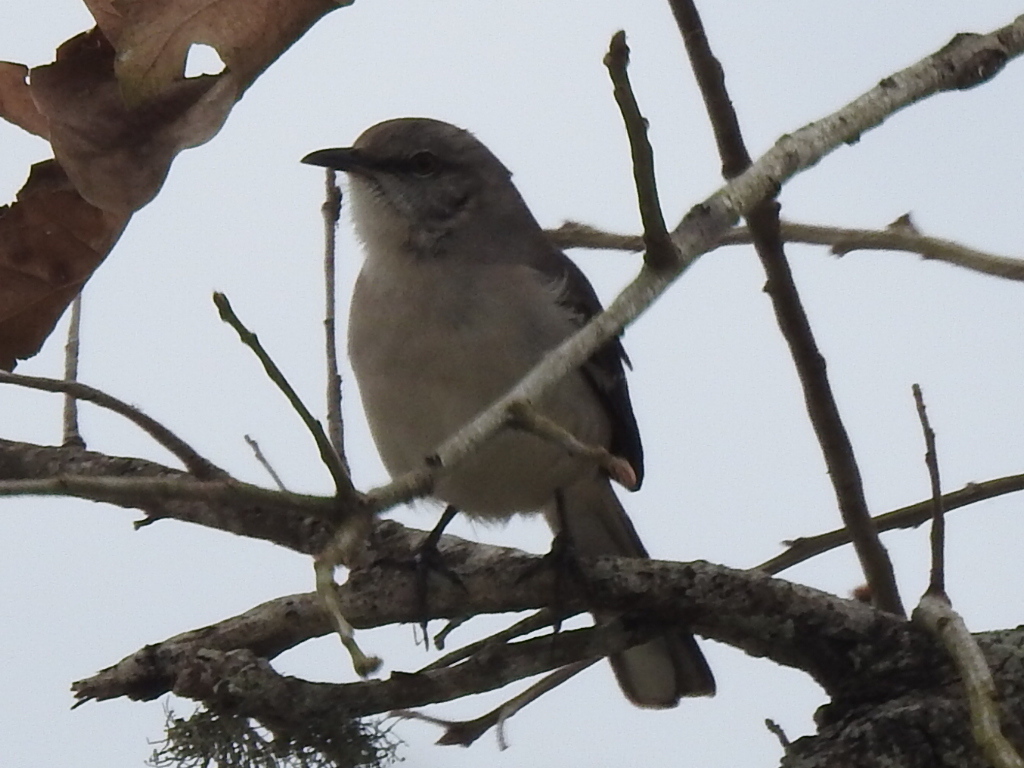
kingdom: Animalia
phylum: Chordata
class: Aves
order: Passeriformes
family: Mimidae
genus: Mimus
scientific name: Mimus polyglottos
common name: Northern mockingbird
